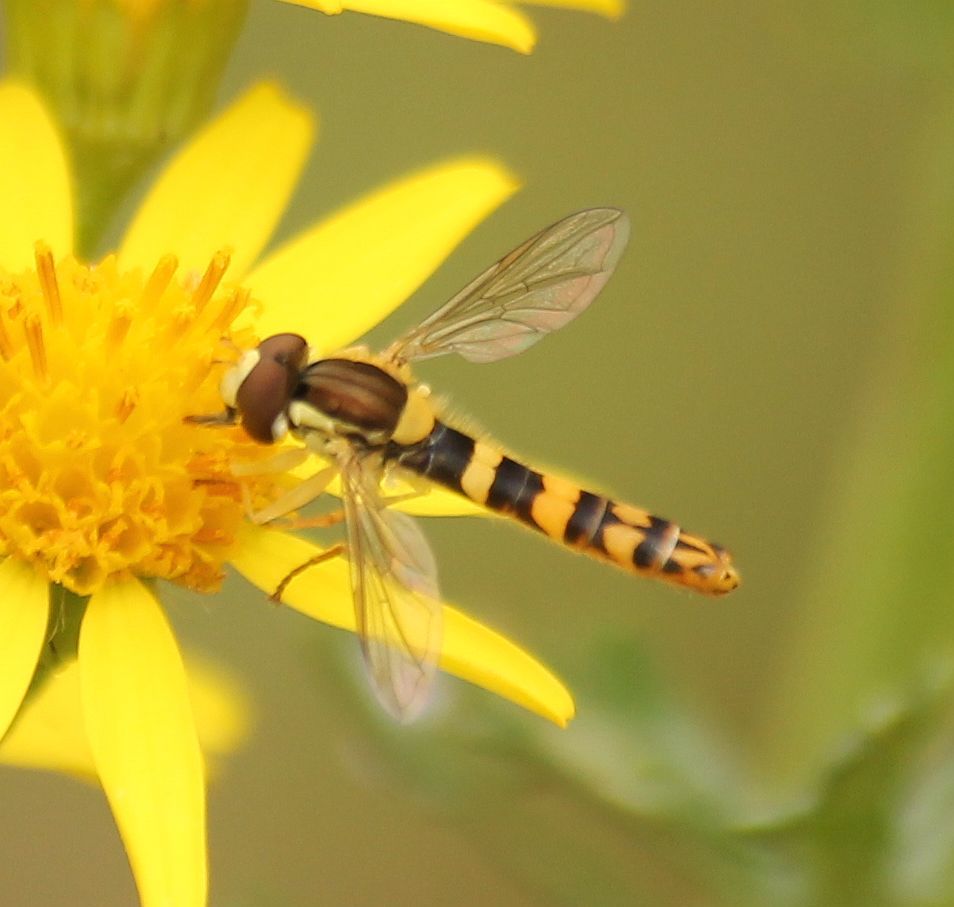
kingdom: Animalia
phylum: Arthropoda
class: Insecta
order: Diptera
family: Syrphidae
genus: Sphaerophoria
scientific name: Sphaerophoria scripta
